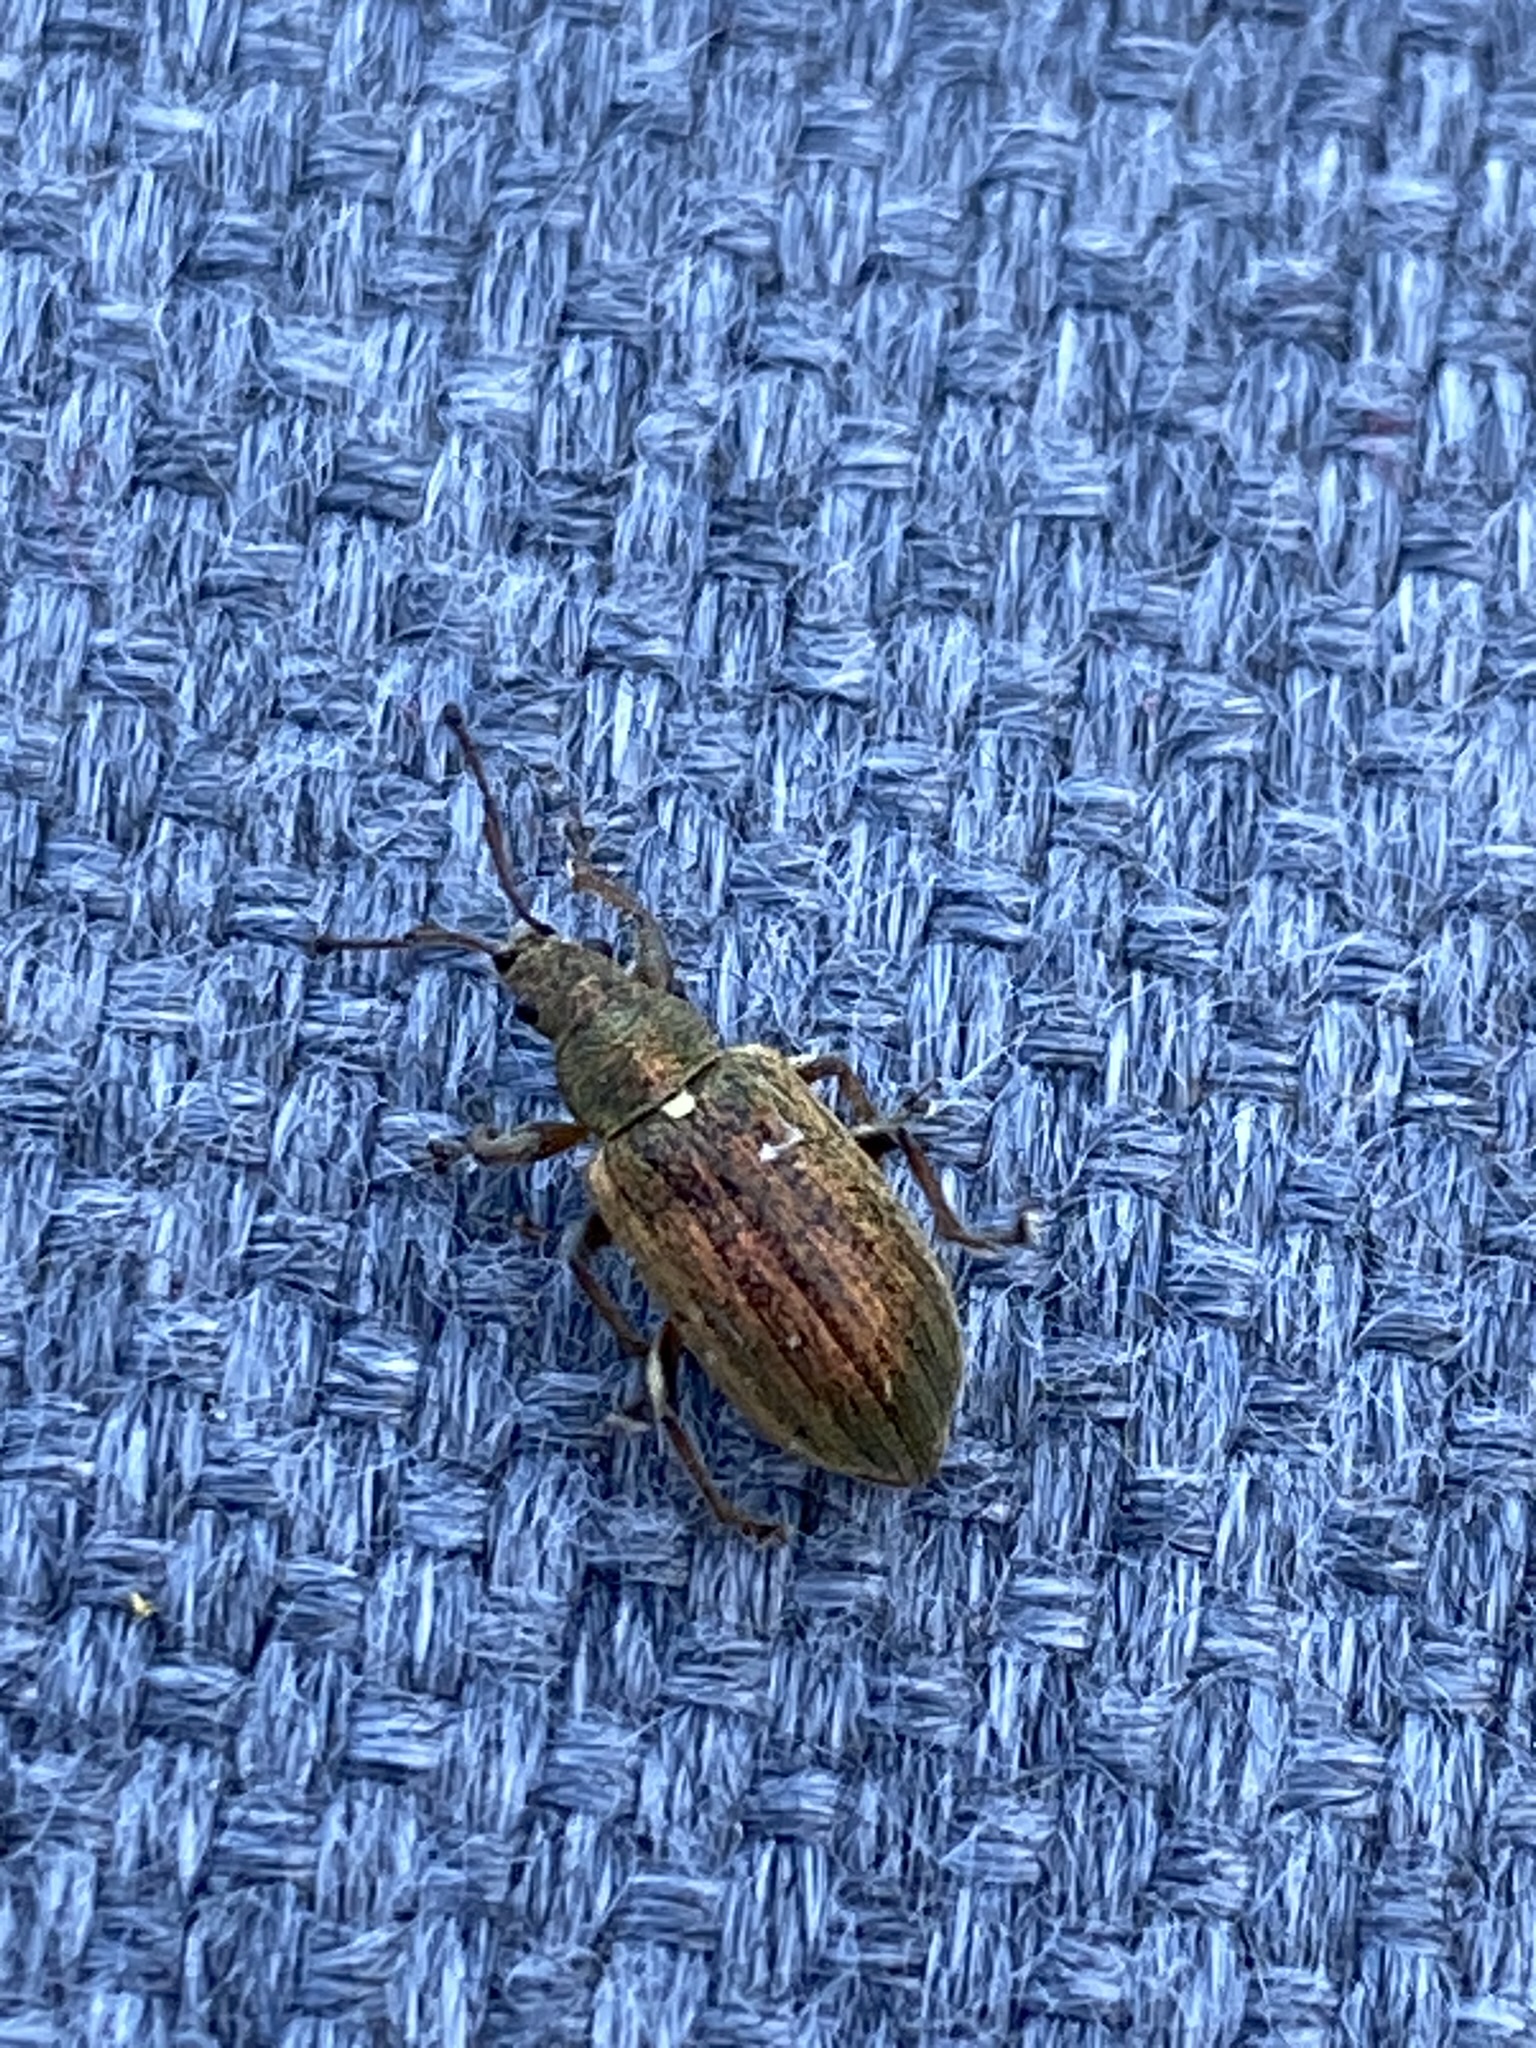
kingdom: Animalia
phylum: Arthropoda
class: Insecta
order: Coleoptera
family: Curculionidae
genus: Phyllobius
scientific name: Phyllobius pyri
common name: Common leaf weevil
